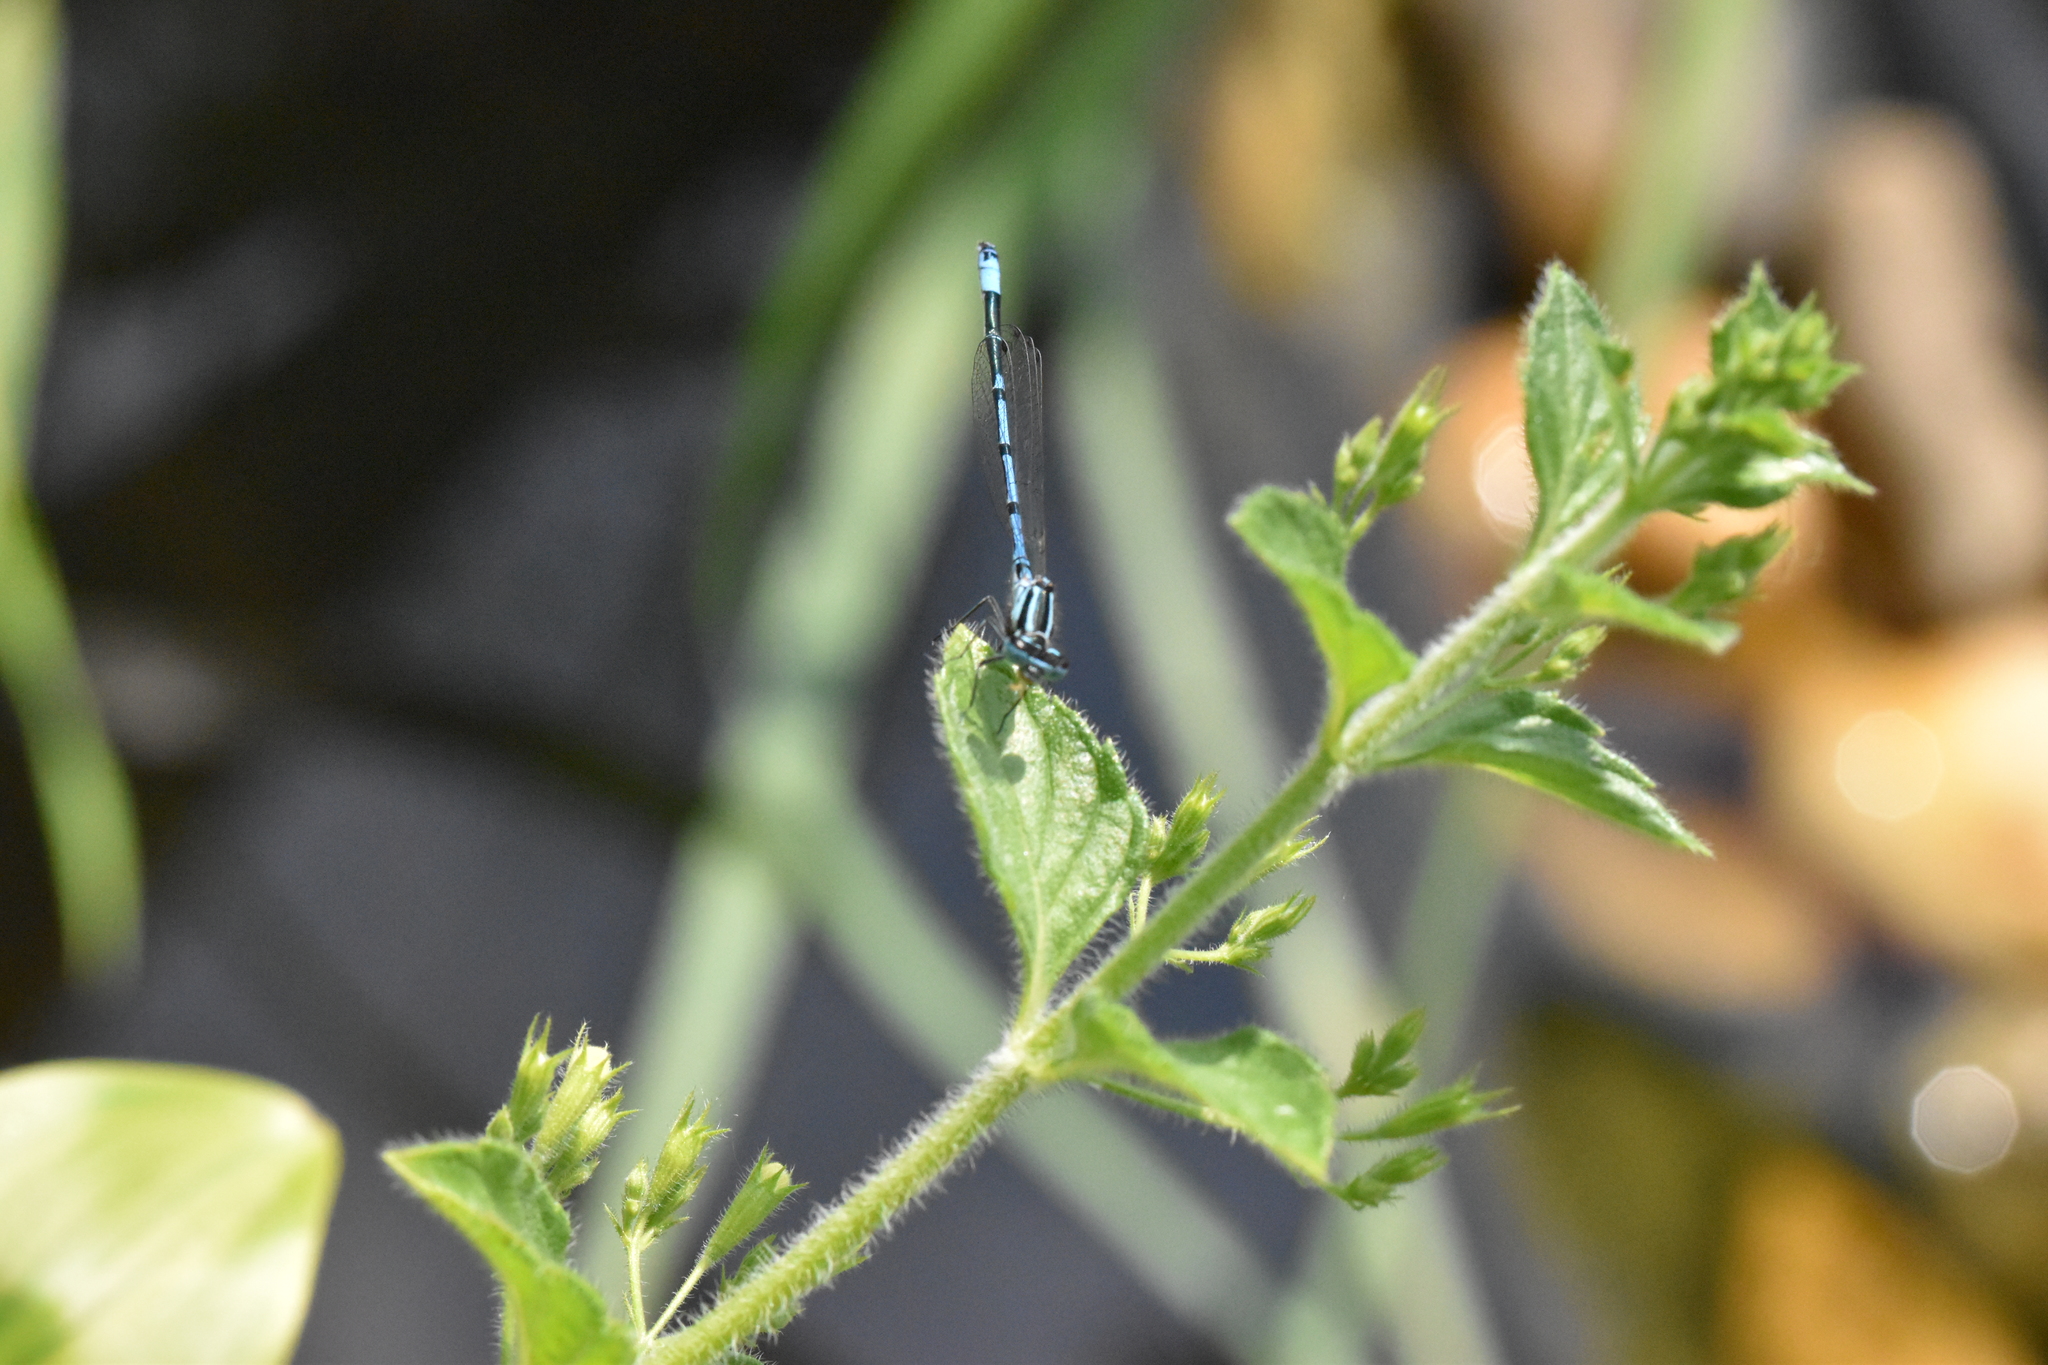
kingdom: Animalia
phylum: Arthropoda
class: Insecta
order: Odonata
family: Coenagrionidae
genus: Coenagrion
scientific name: Coenagrion puella
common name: Azure damselfly
